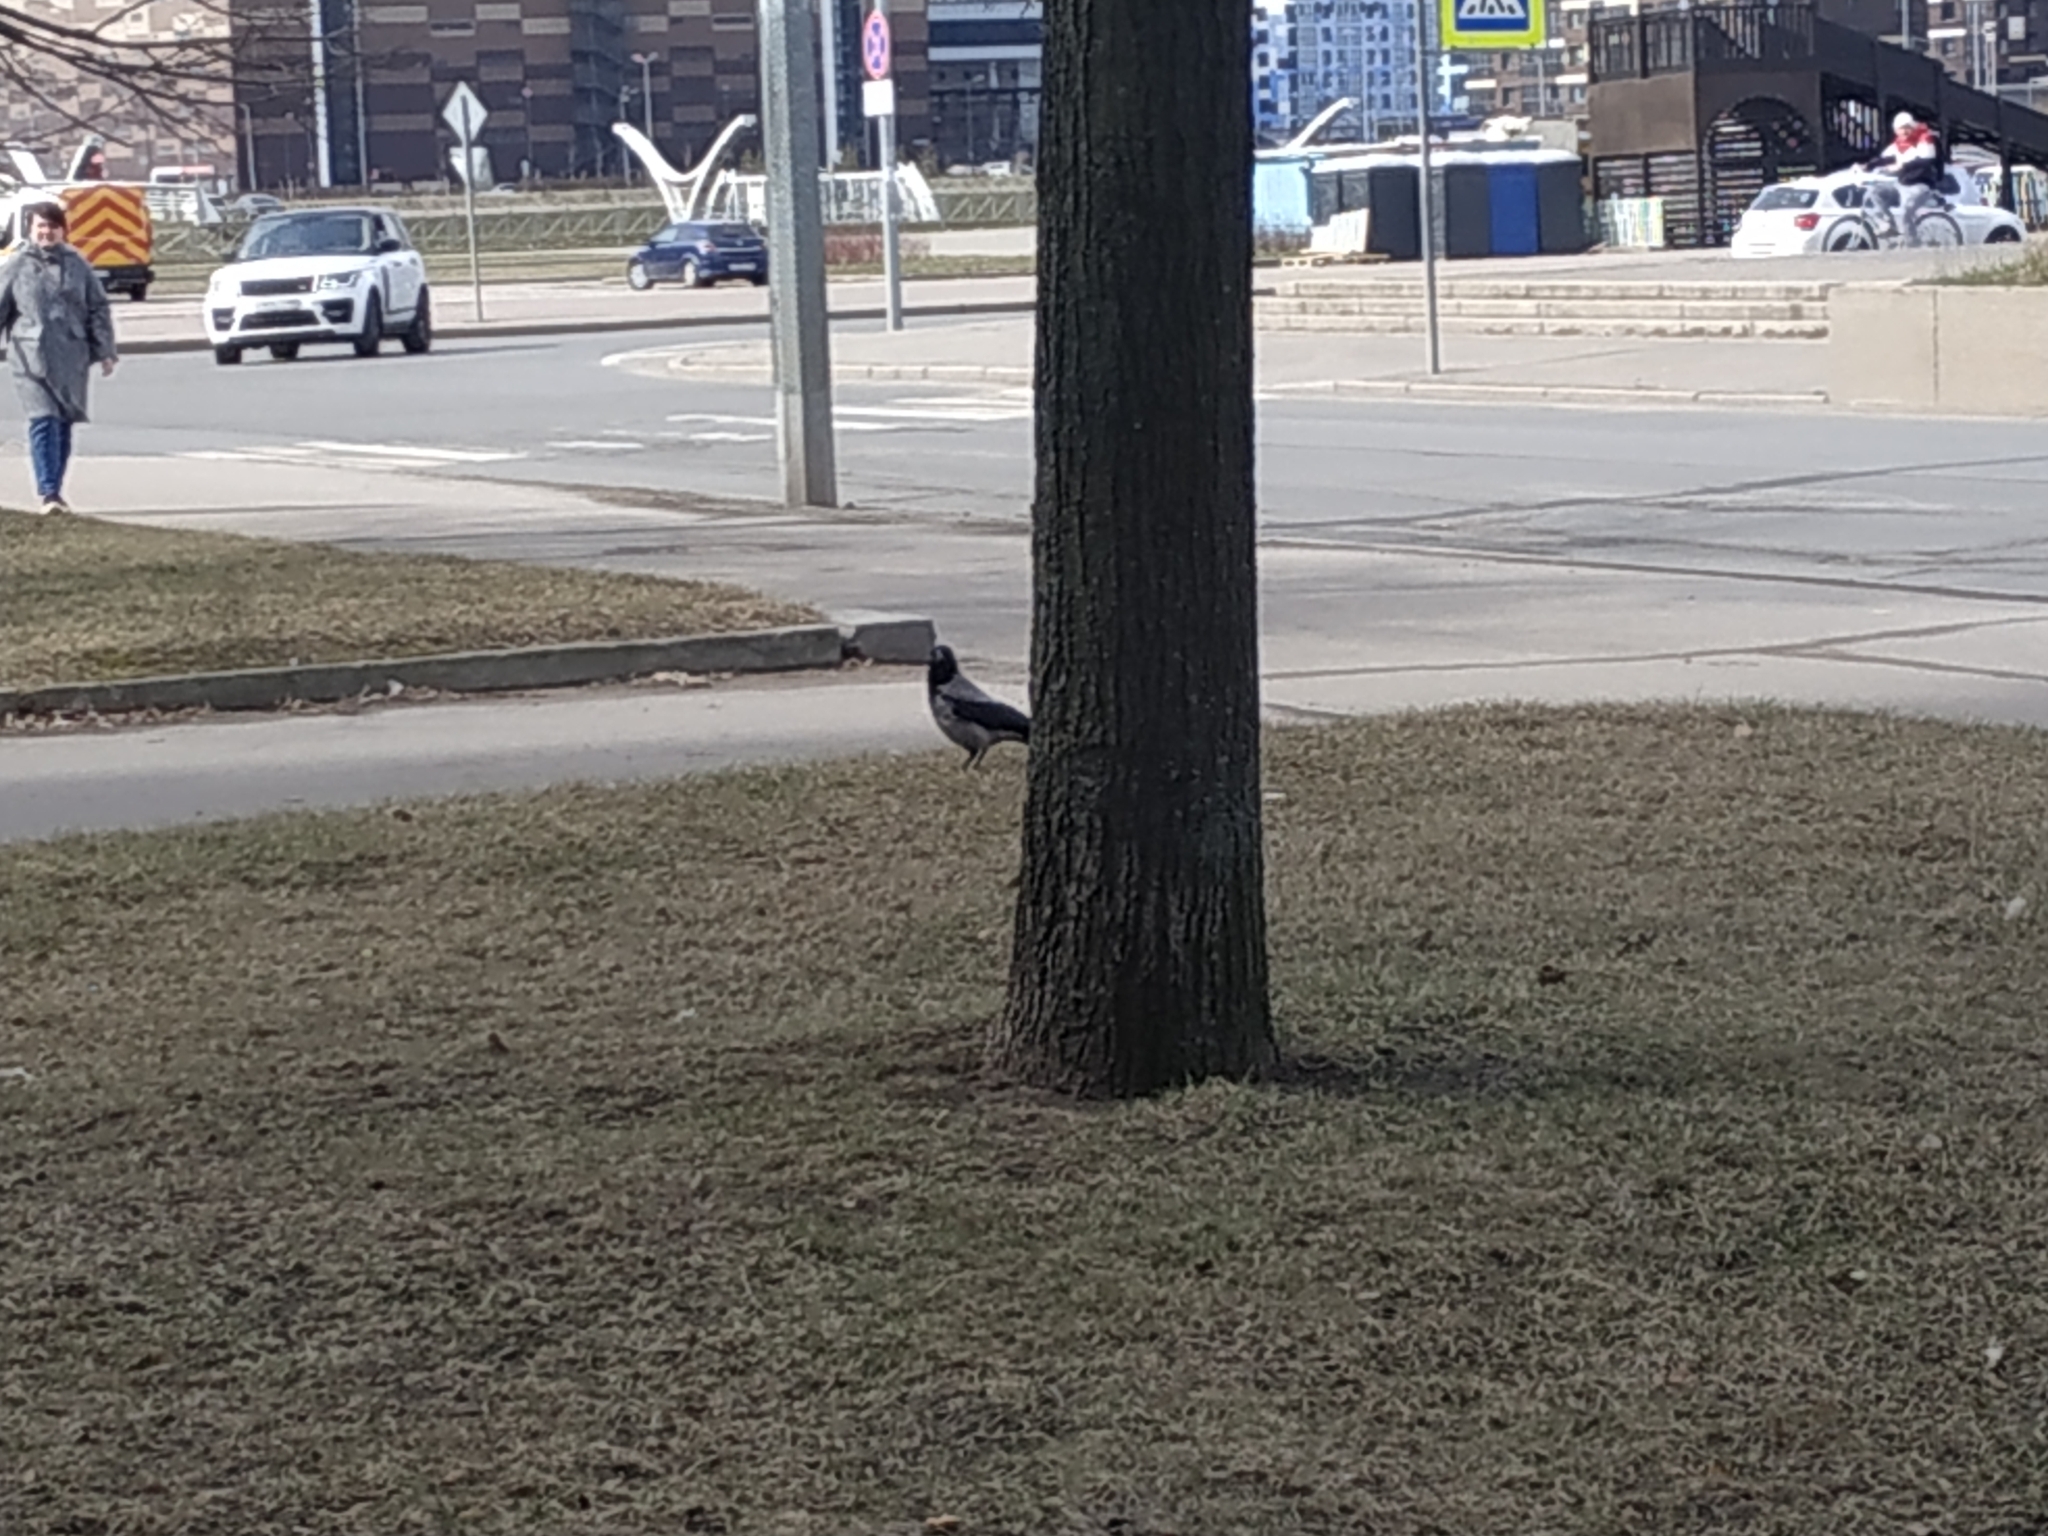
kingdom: Animalia
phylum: Chordata
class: Aves
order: Passeriformes
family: Corvidae
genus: Corvus
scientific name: Corvus cornix
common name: Hooded crow
